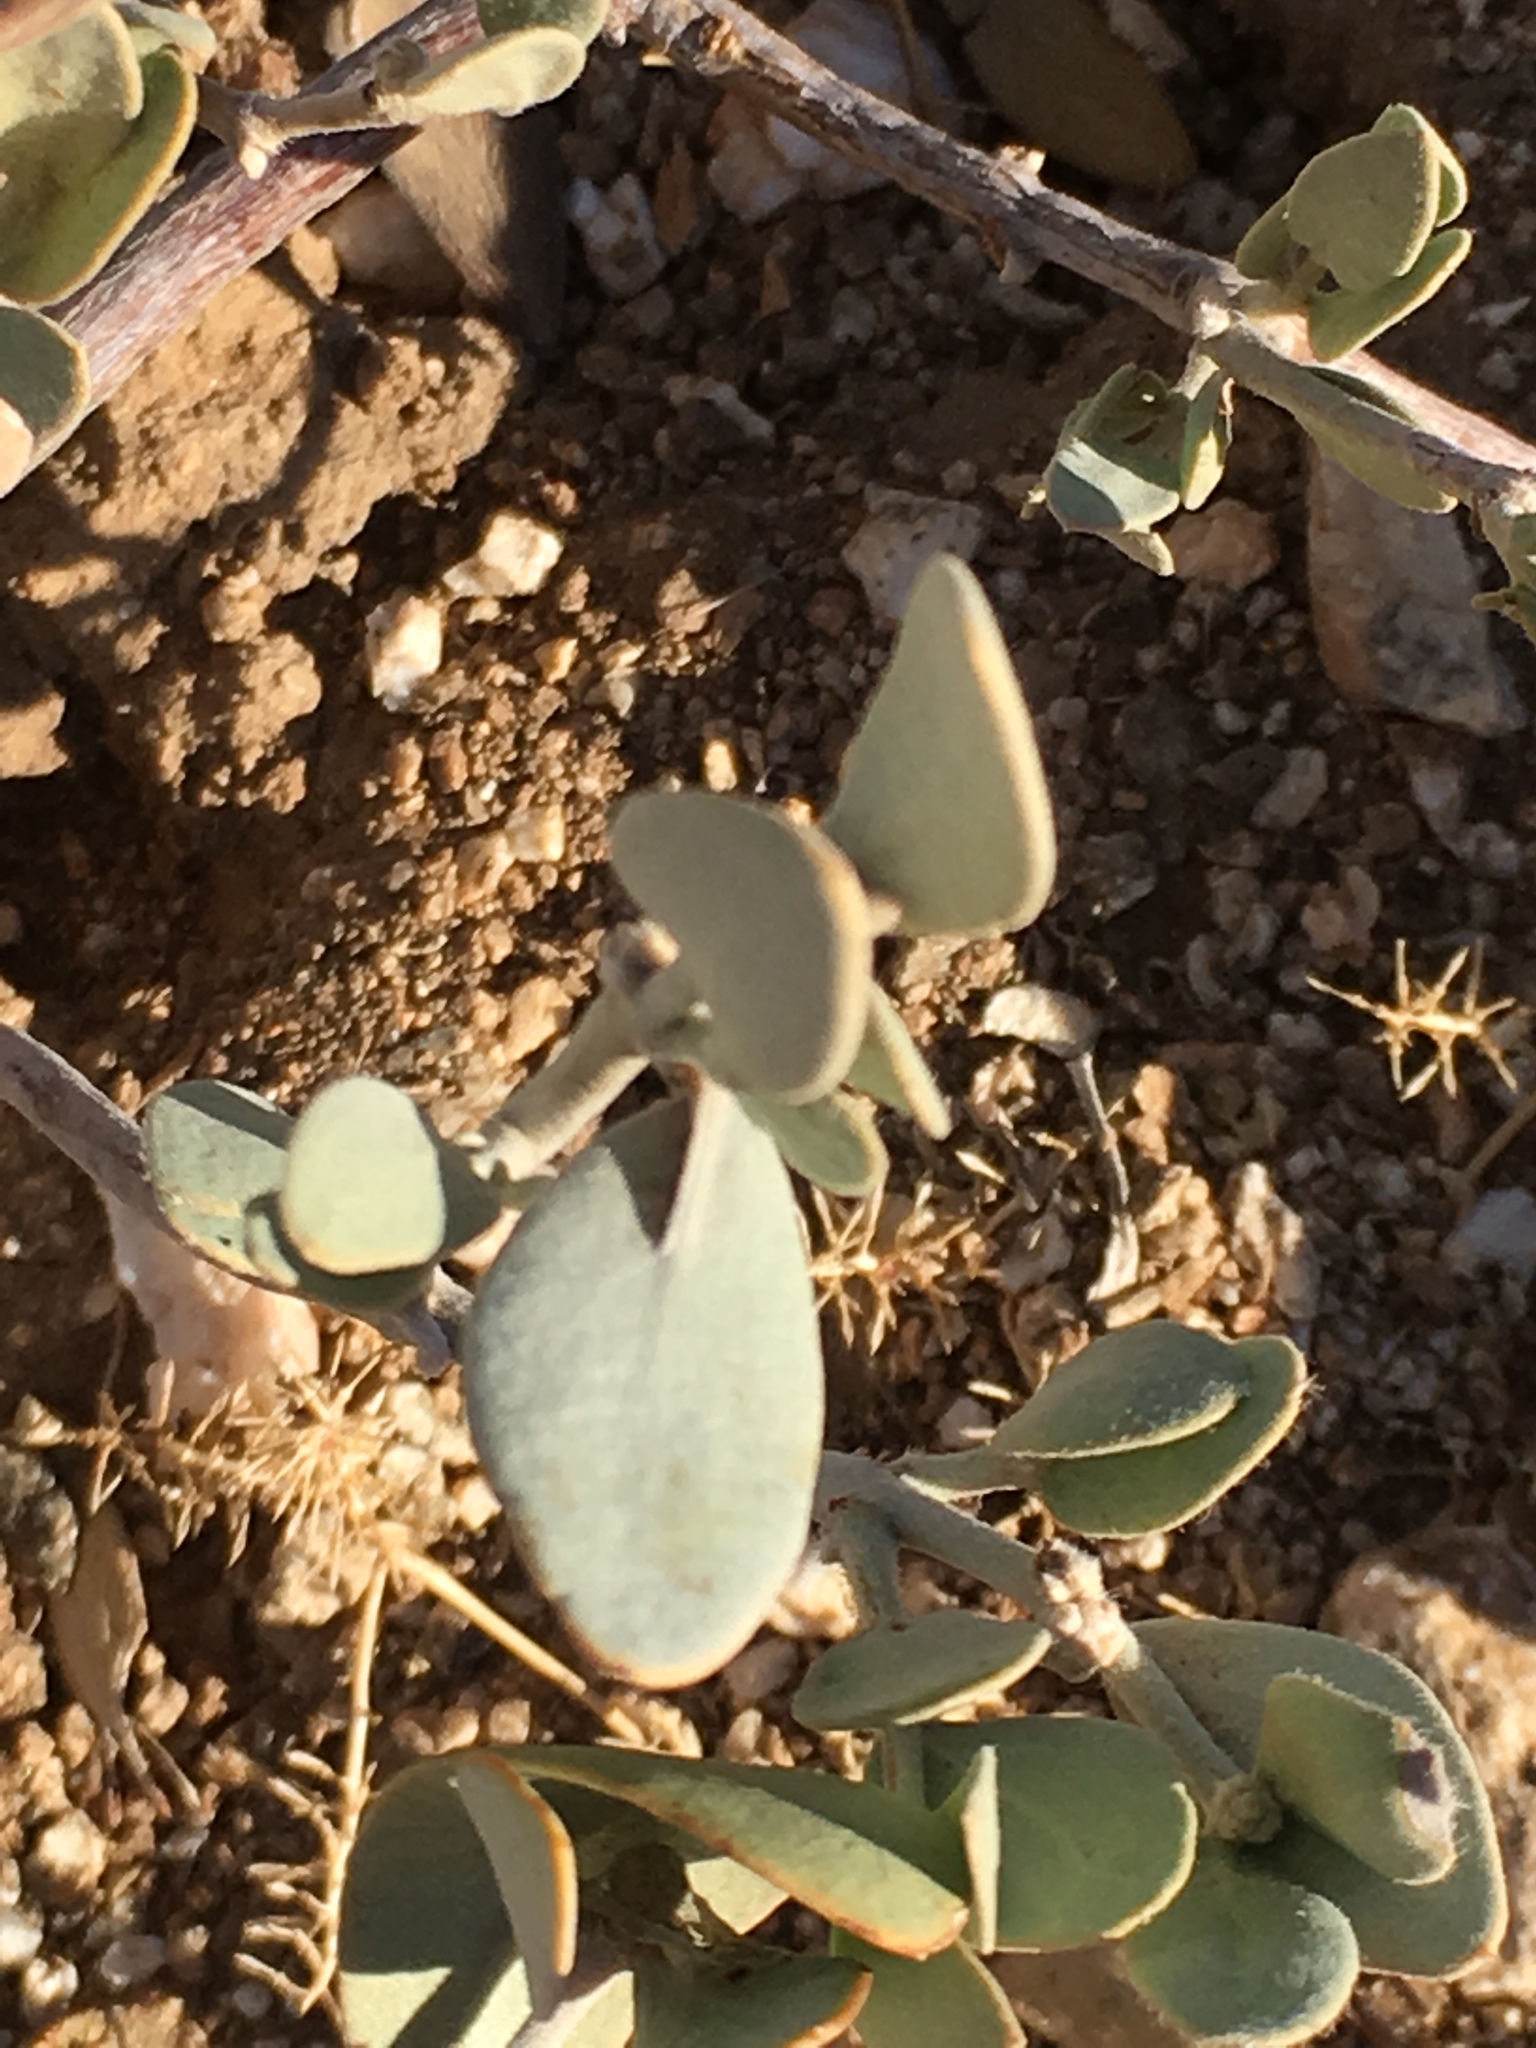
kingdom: Plantae
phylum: Tracheophyta
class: Magnoliopsida
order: Caryophyllales
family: Simmondsiaceae
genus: Simmondsia
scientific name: Simmondsia chinensis
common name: Jojoba
